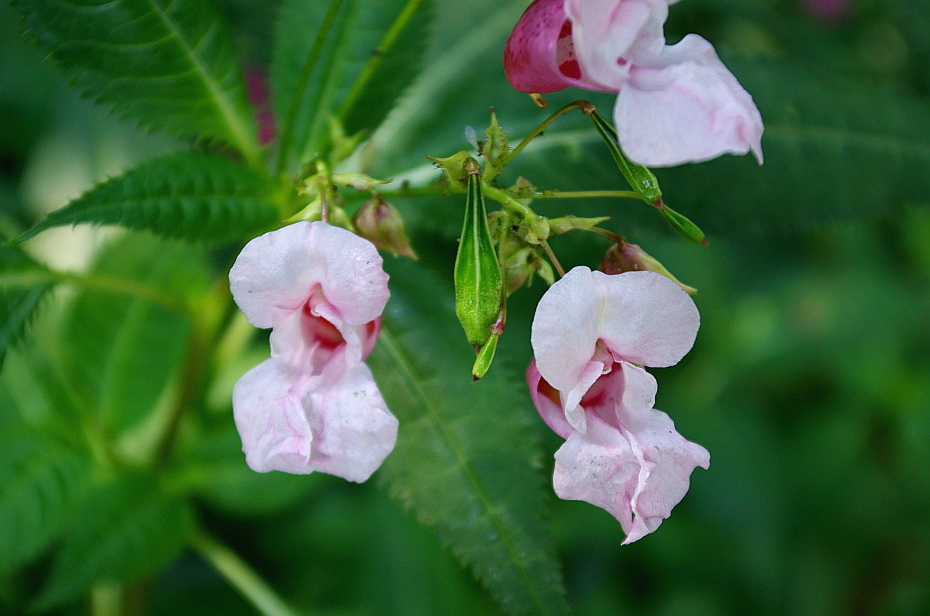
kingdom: Plantae
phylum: Tracheophyta
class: Magnoliopsida
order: Ericales
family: Balsaminaceae
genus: Impatiens
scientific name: Impatiens glandulifera
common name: Himalayan balsam
